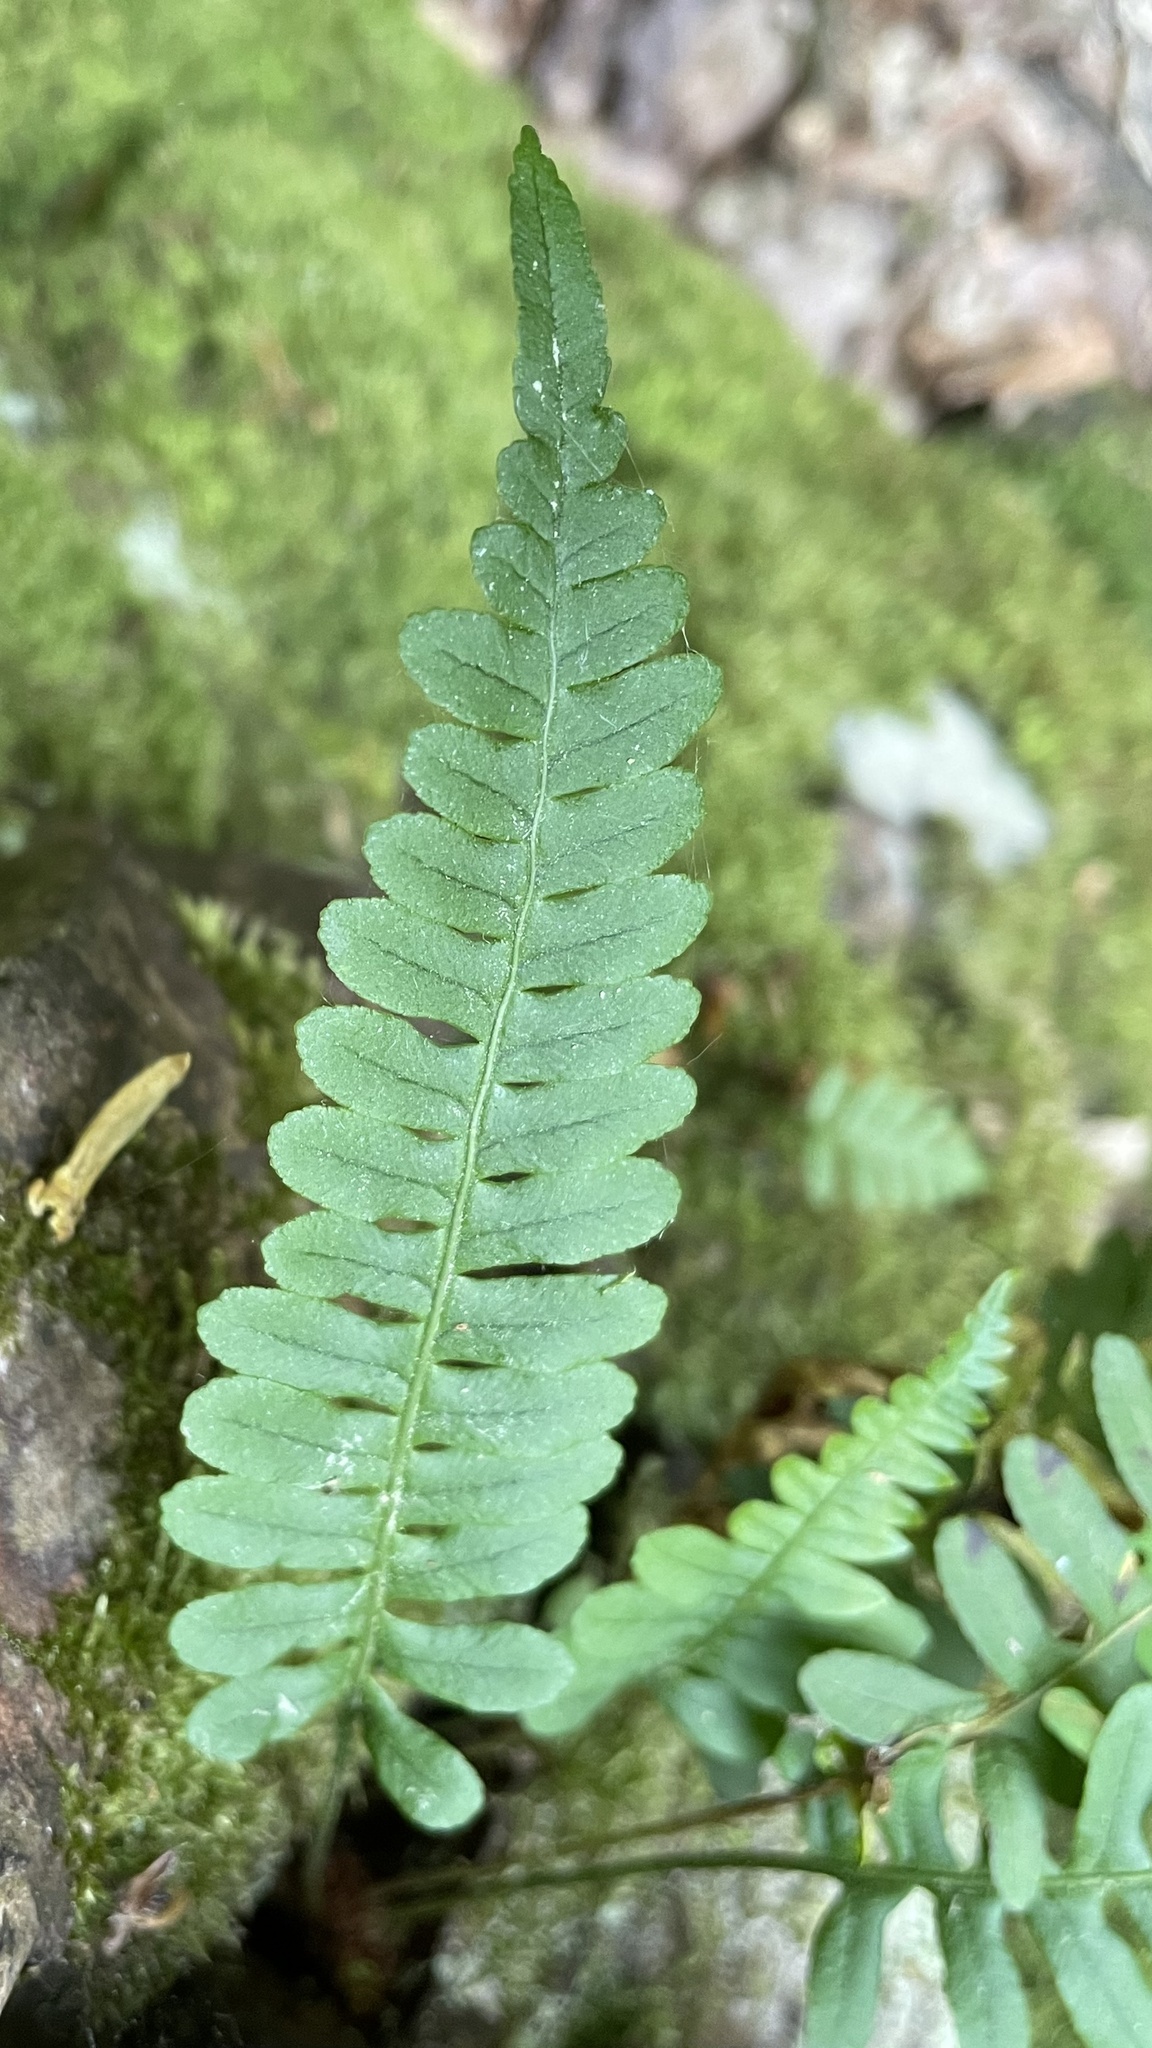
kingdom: Plantae
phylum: Tracheophyta
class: Polypodiopsida
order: Polypodiales
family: Polypodiaceae
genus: Polypodium
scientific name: Polypodium vulgare
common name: Common polypody
